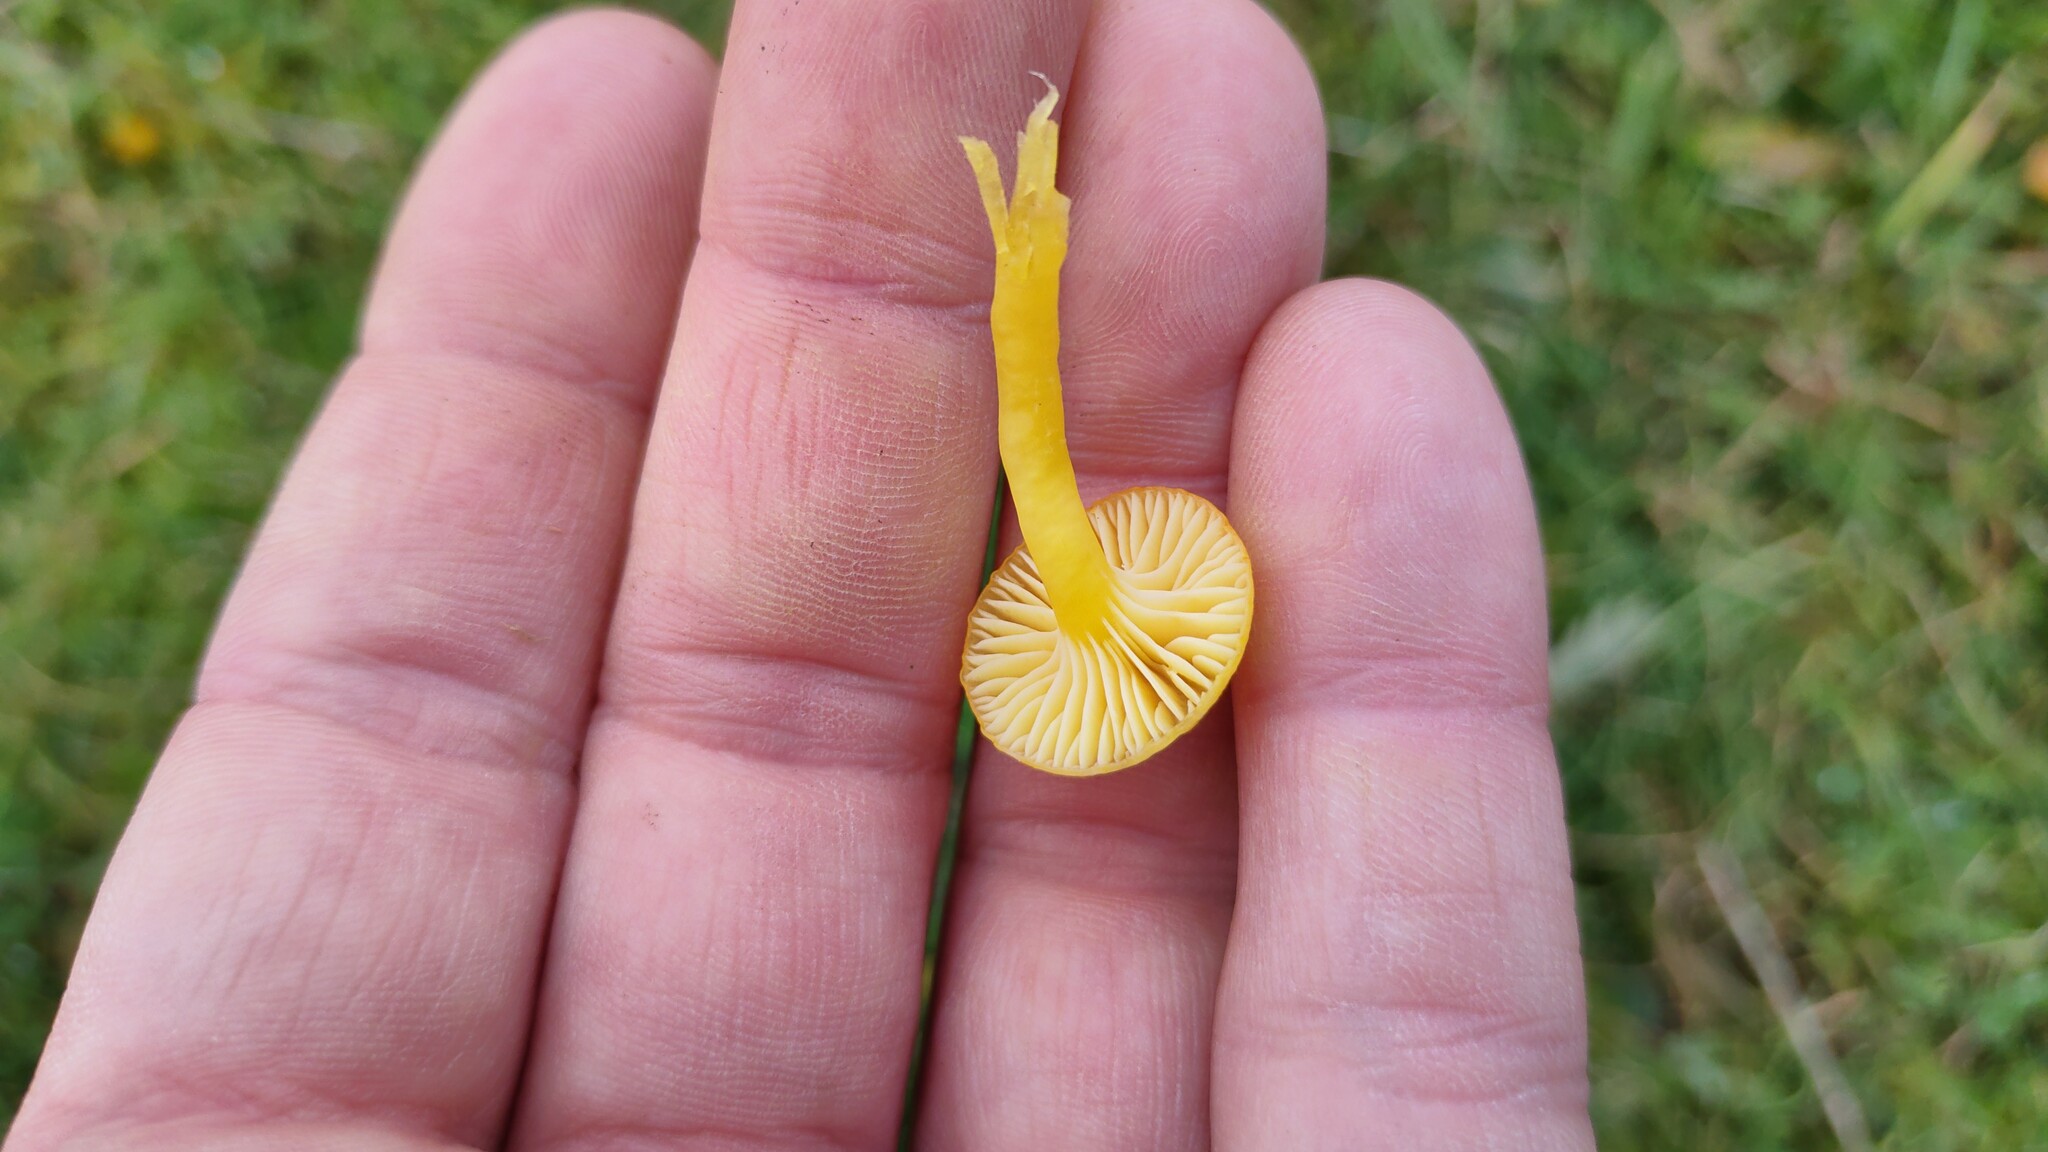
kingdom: Fungi
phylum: Basidiomycota
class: Agaricomycetes
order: Agaricales
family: Hygrophoraceae
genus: Hygrocybe
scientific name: Hygrocybe ceracea
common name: Butter waxcap
